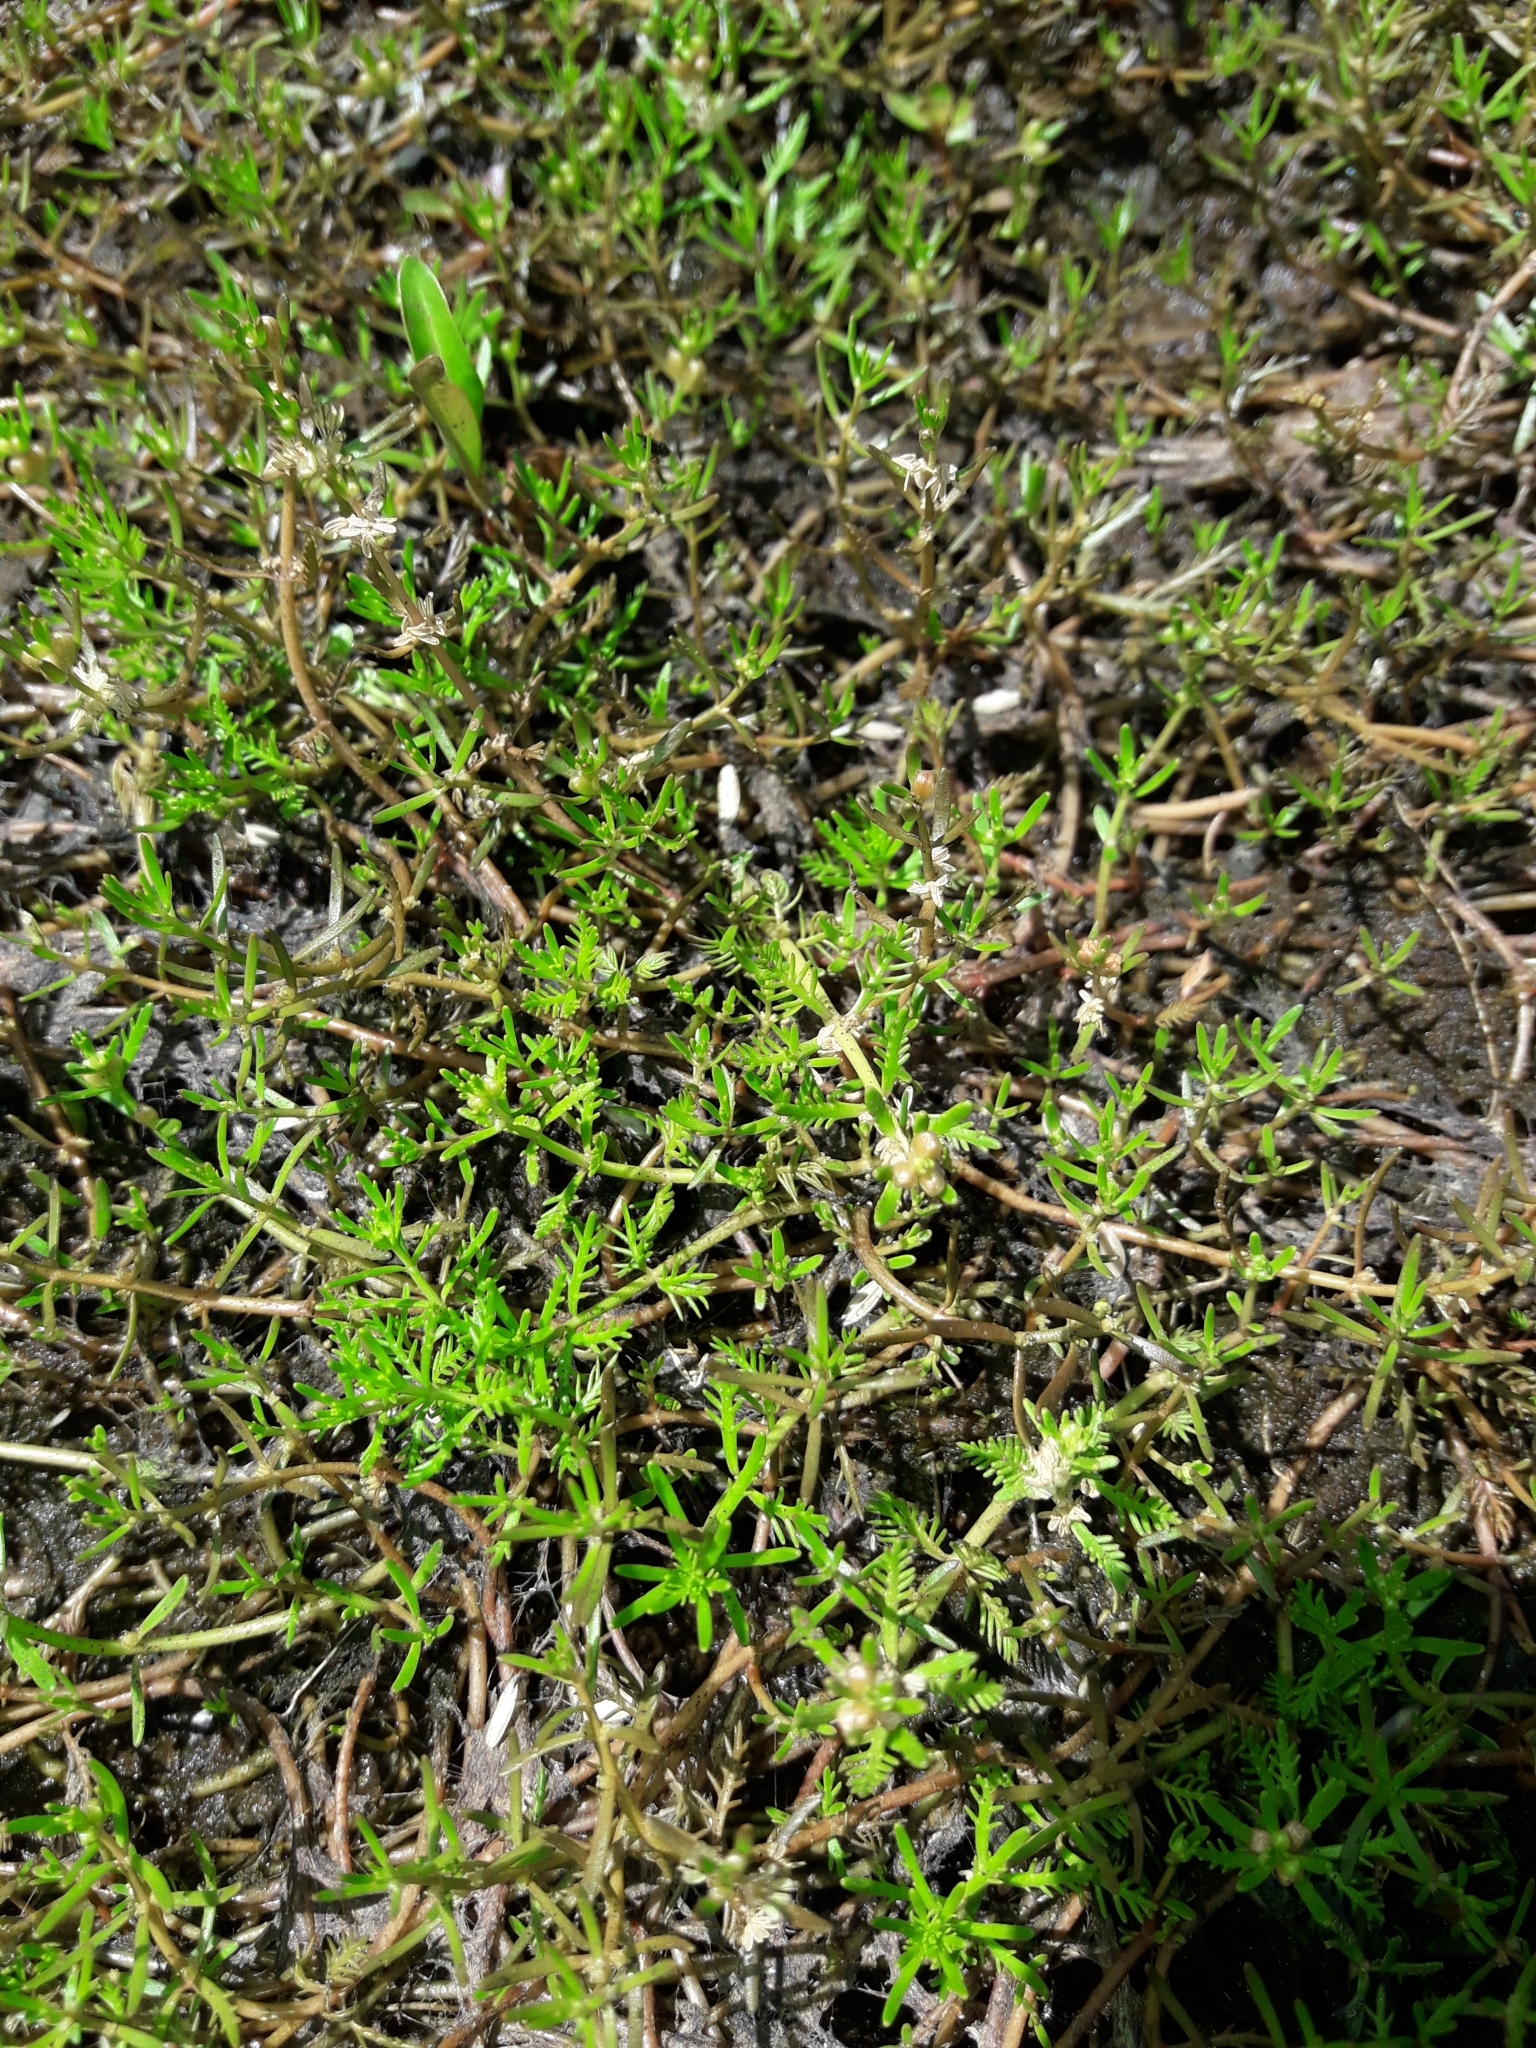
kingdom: Plantae
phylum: Tracheophyta
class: Magnoliopsida
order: Saxifragales
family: Haloragaceae
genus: Myriophyllum
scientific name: Myriophyllum propinquum
